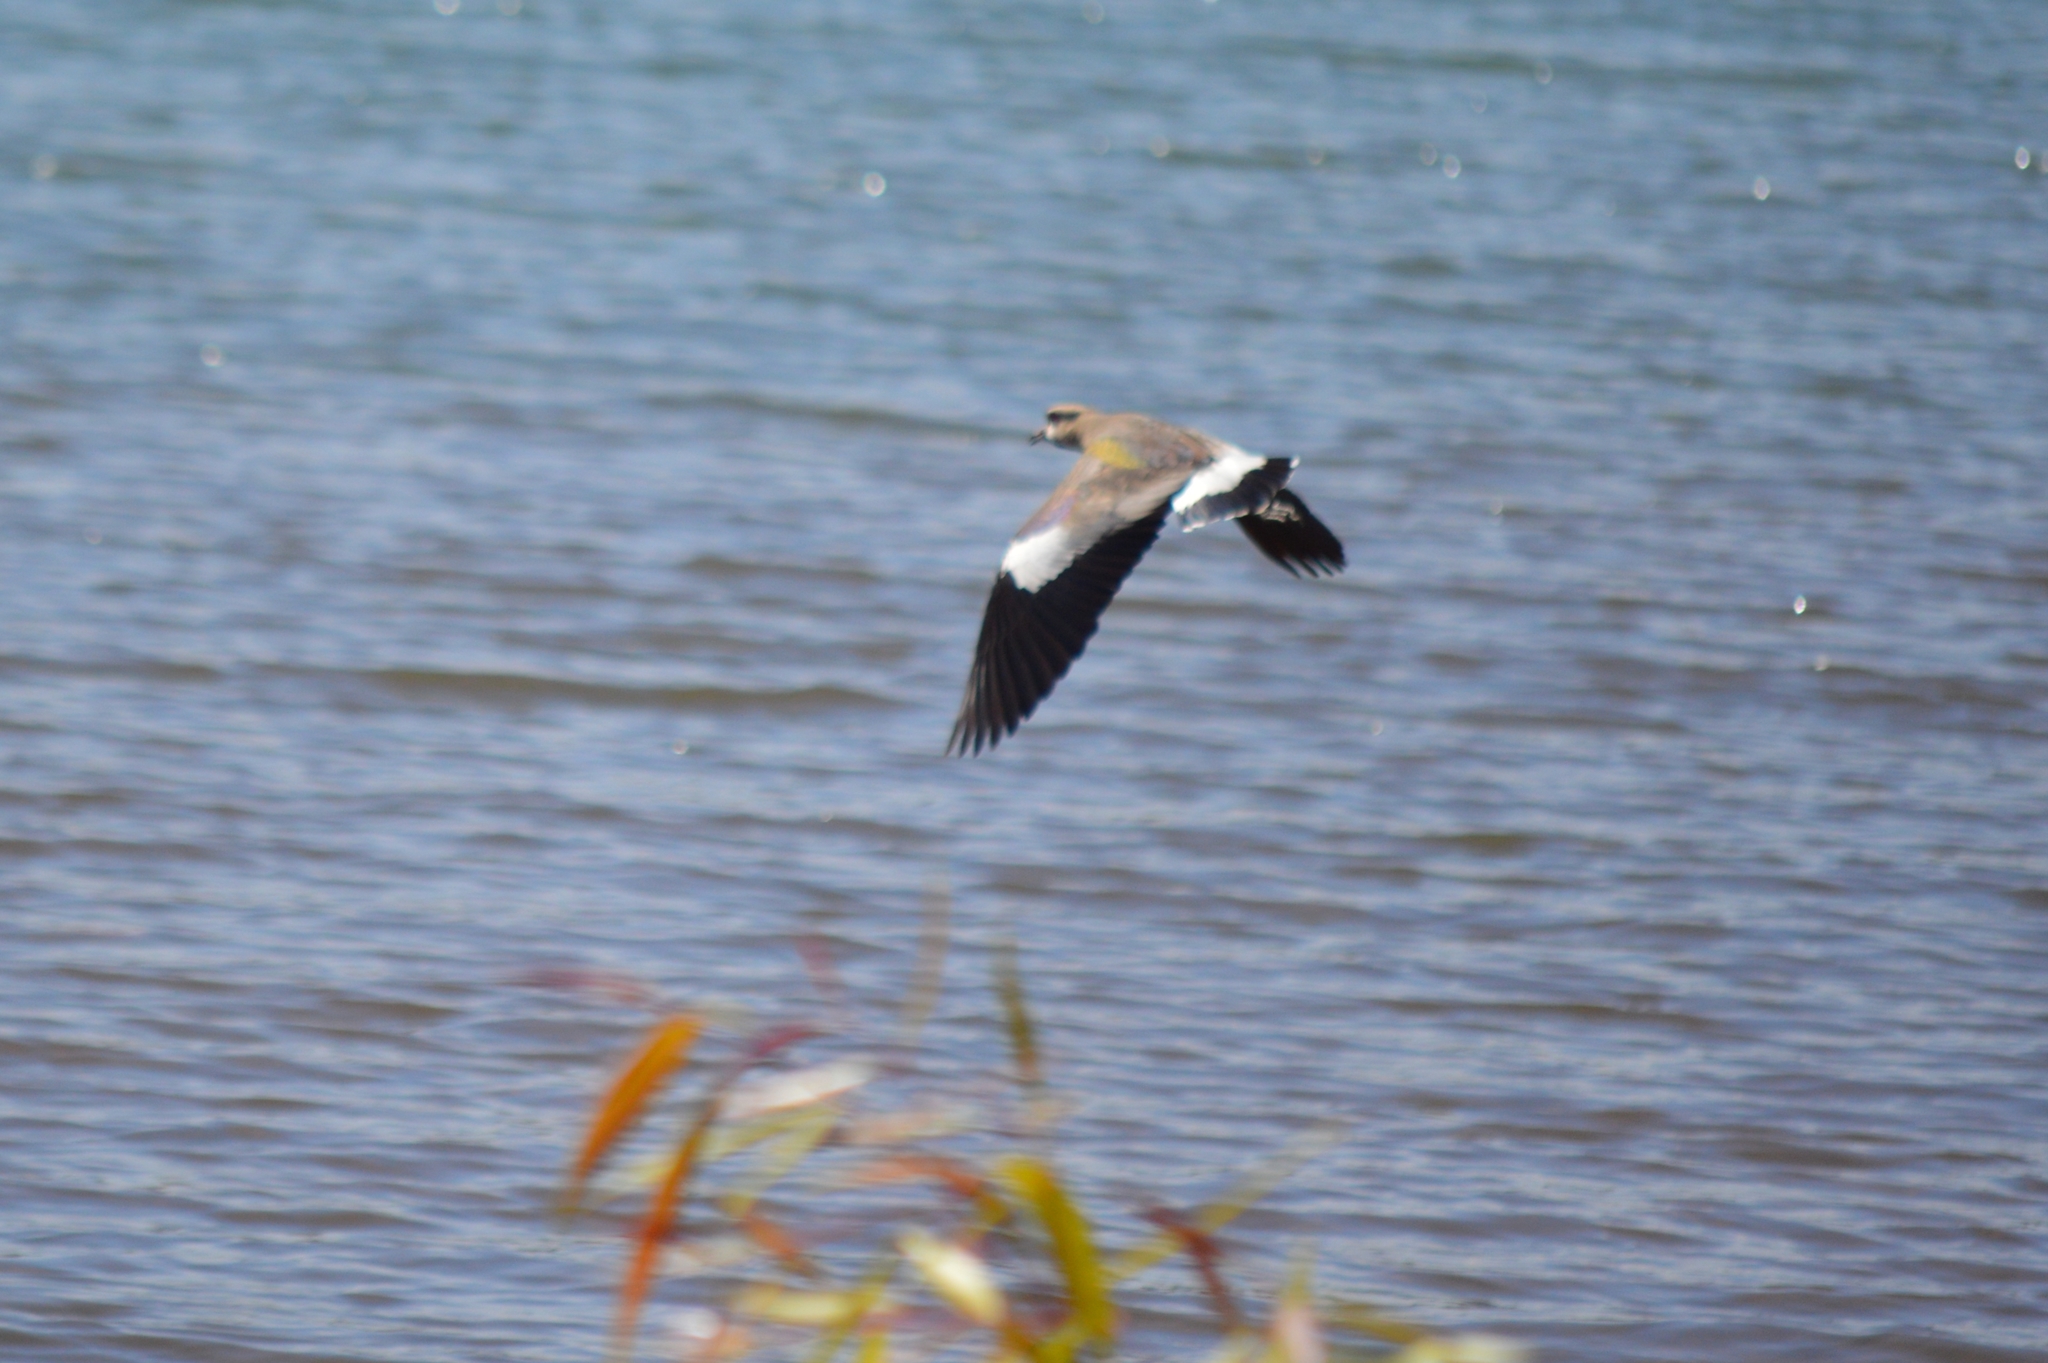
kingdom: Animalia
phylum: Chordata
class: Aves
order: Charadriiformes
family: Charadriidae
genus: Vanellus
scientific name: Vanellus chilensis
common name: Southern lapwing
